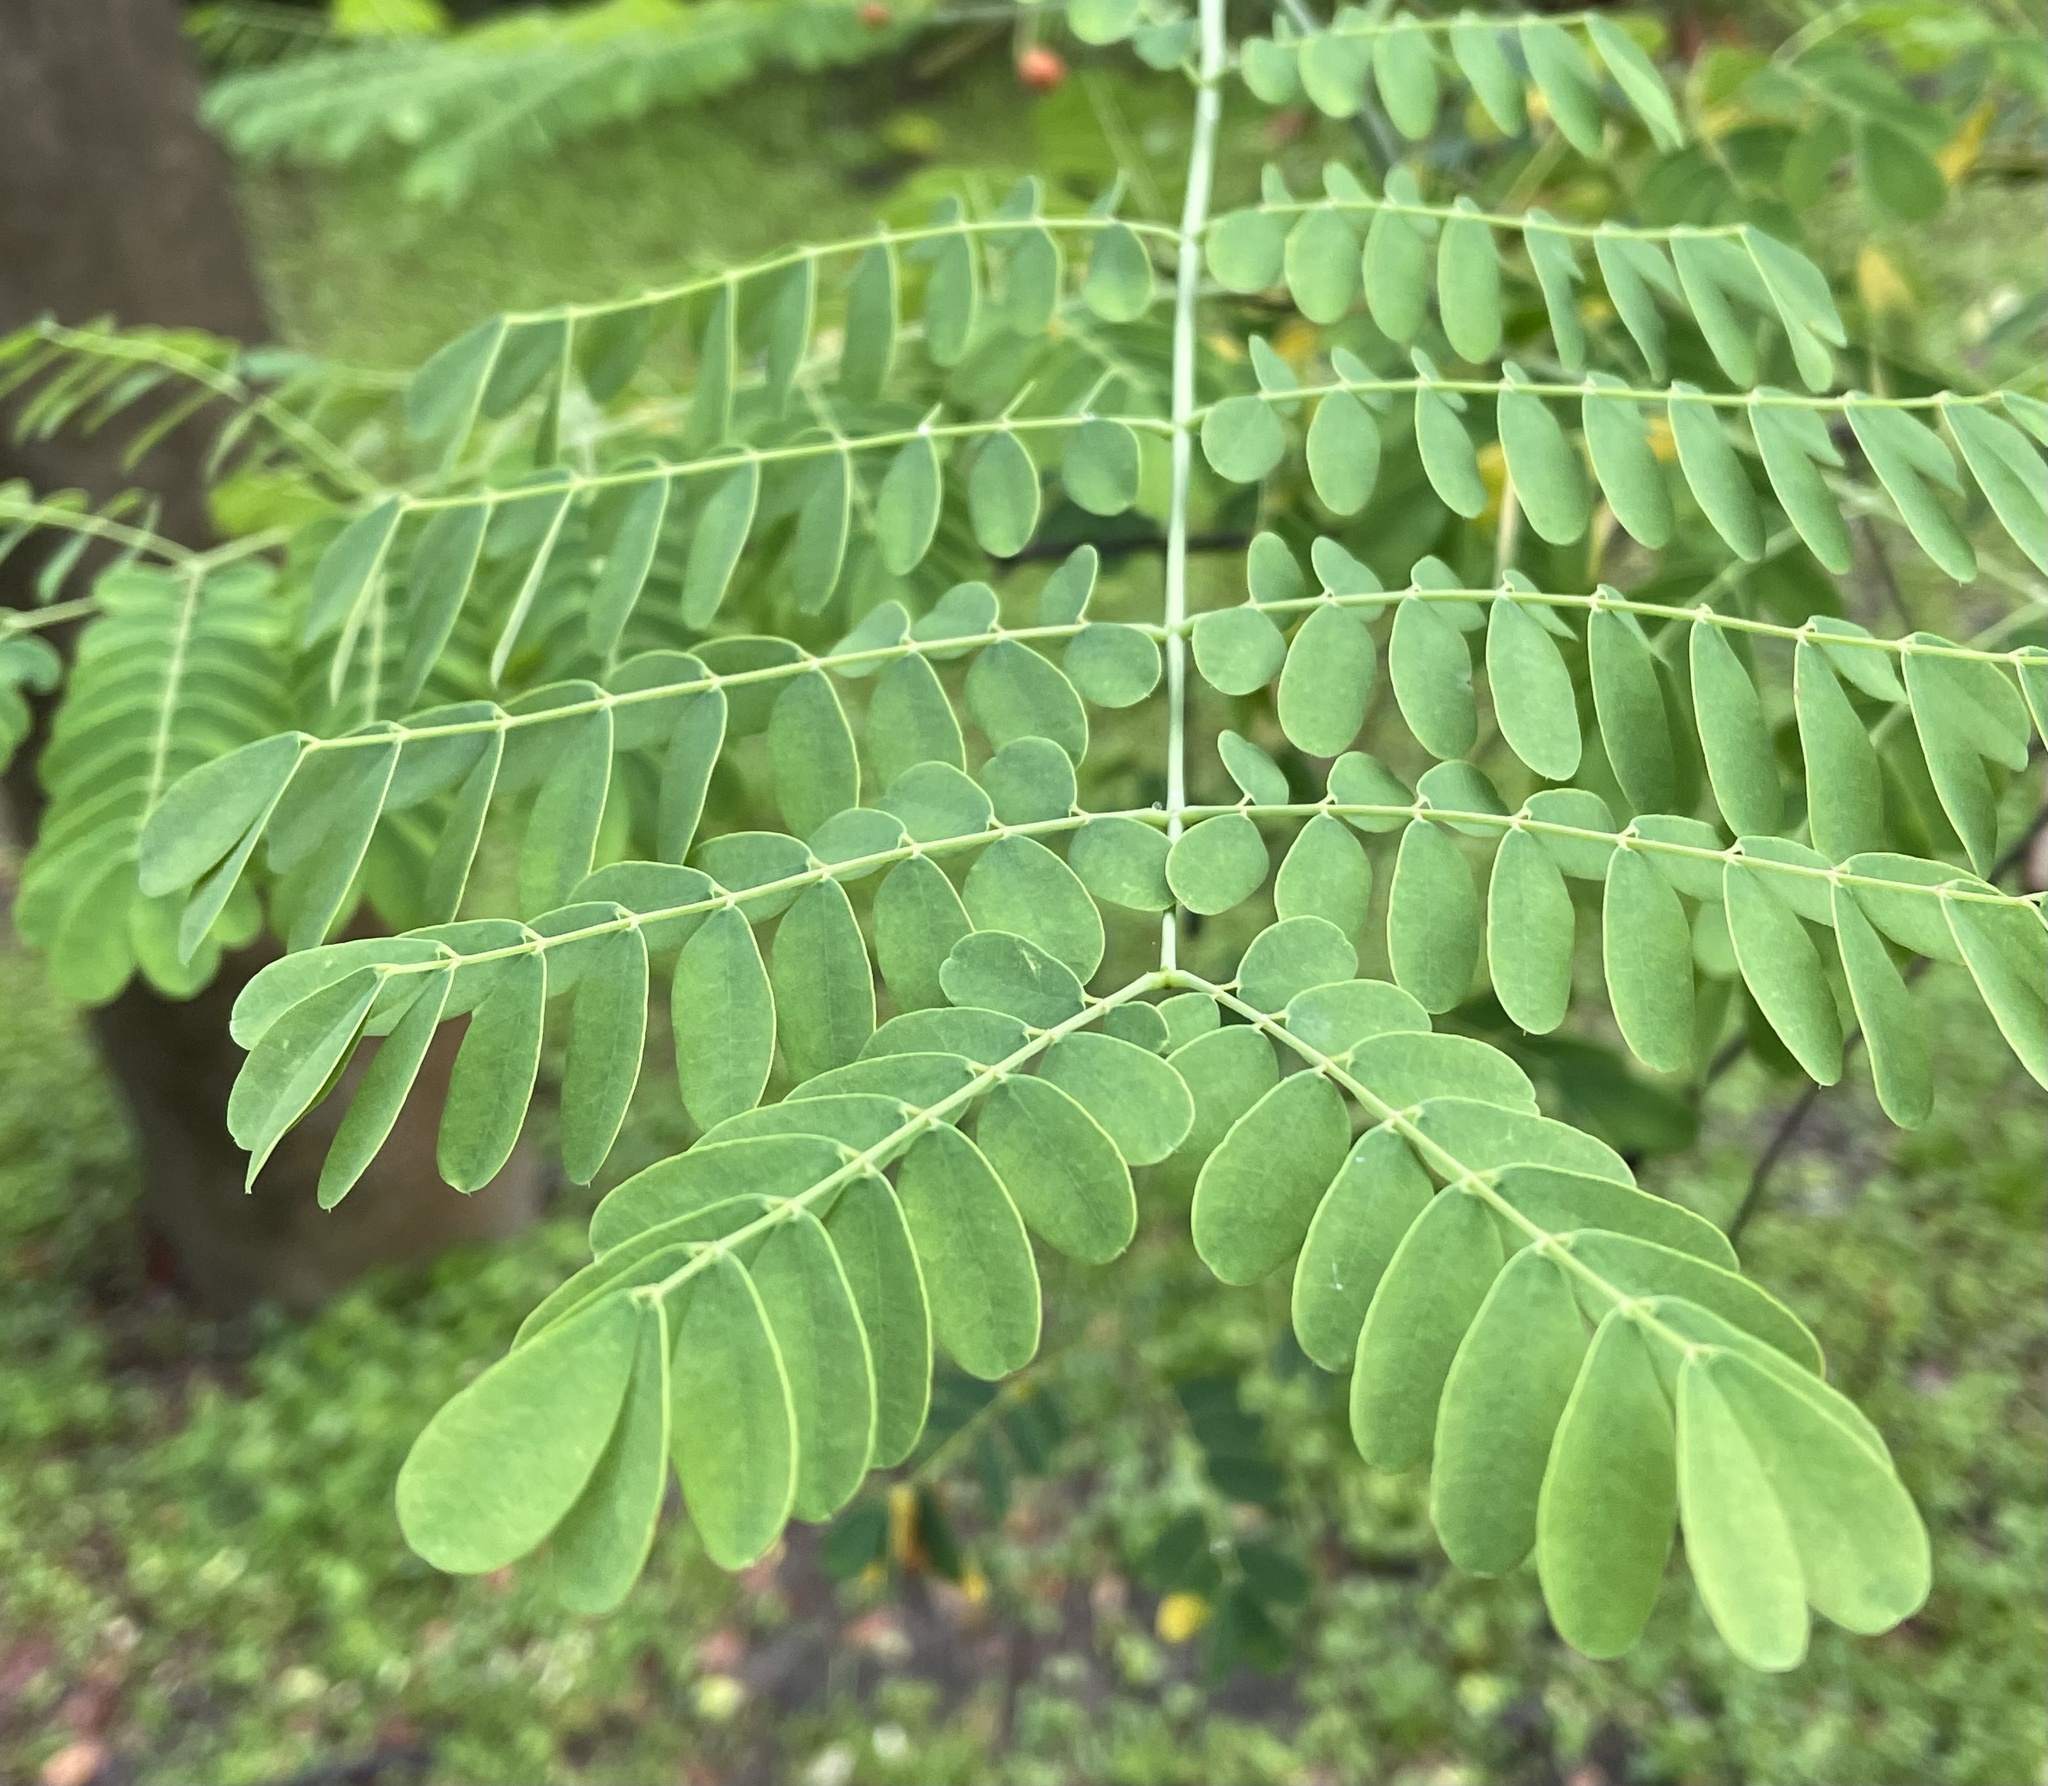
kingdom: Plantae
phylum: Tracheophyta
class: Magnoliopsida
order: Fabales
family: Fabaceae
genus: Caesalpinia
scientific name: Caesalpinia pulcherrima
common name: Pride-of-barbados
